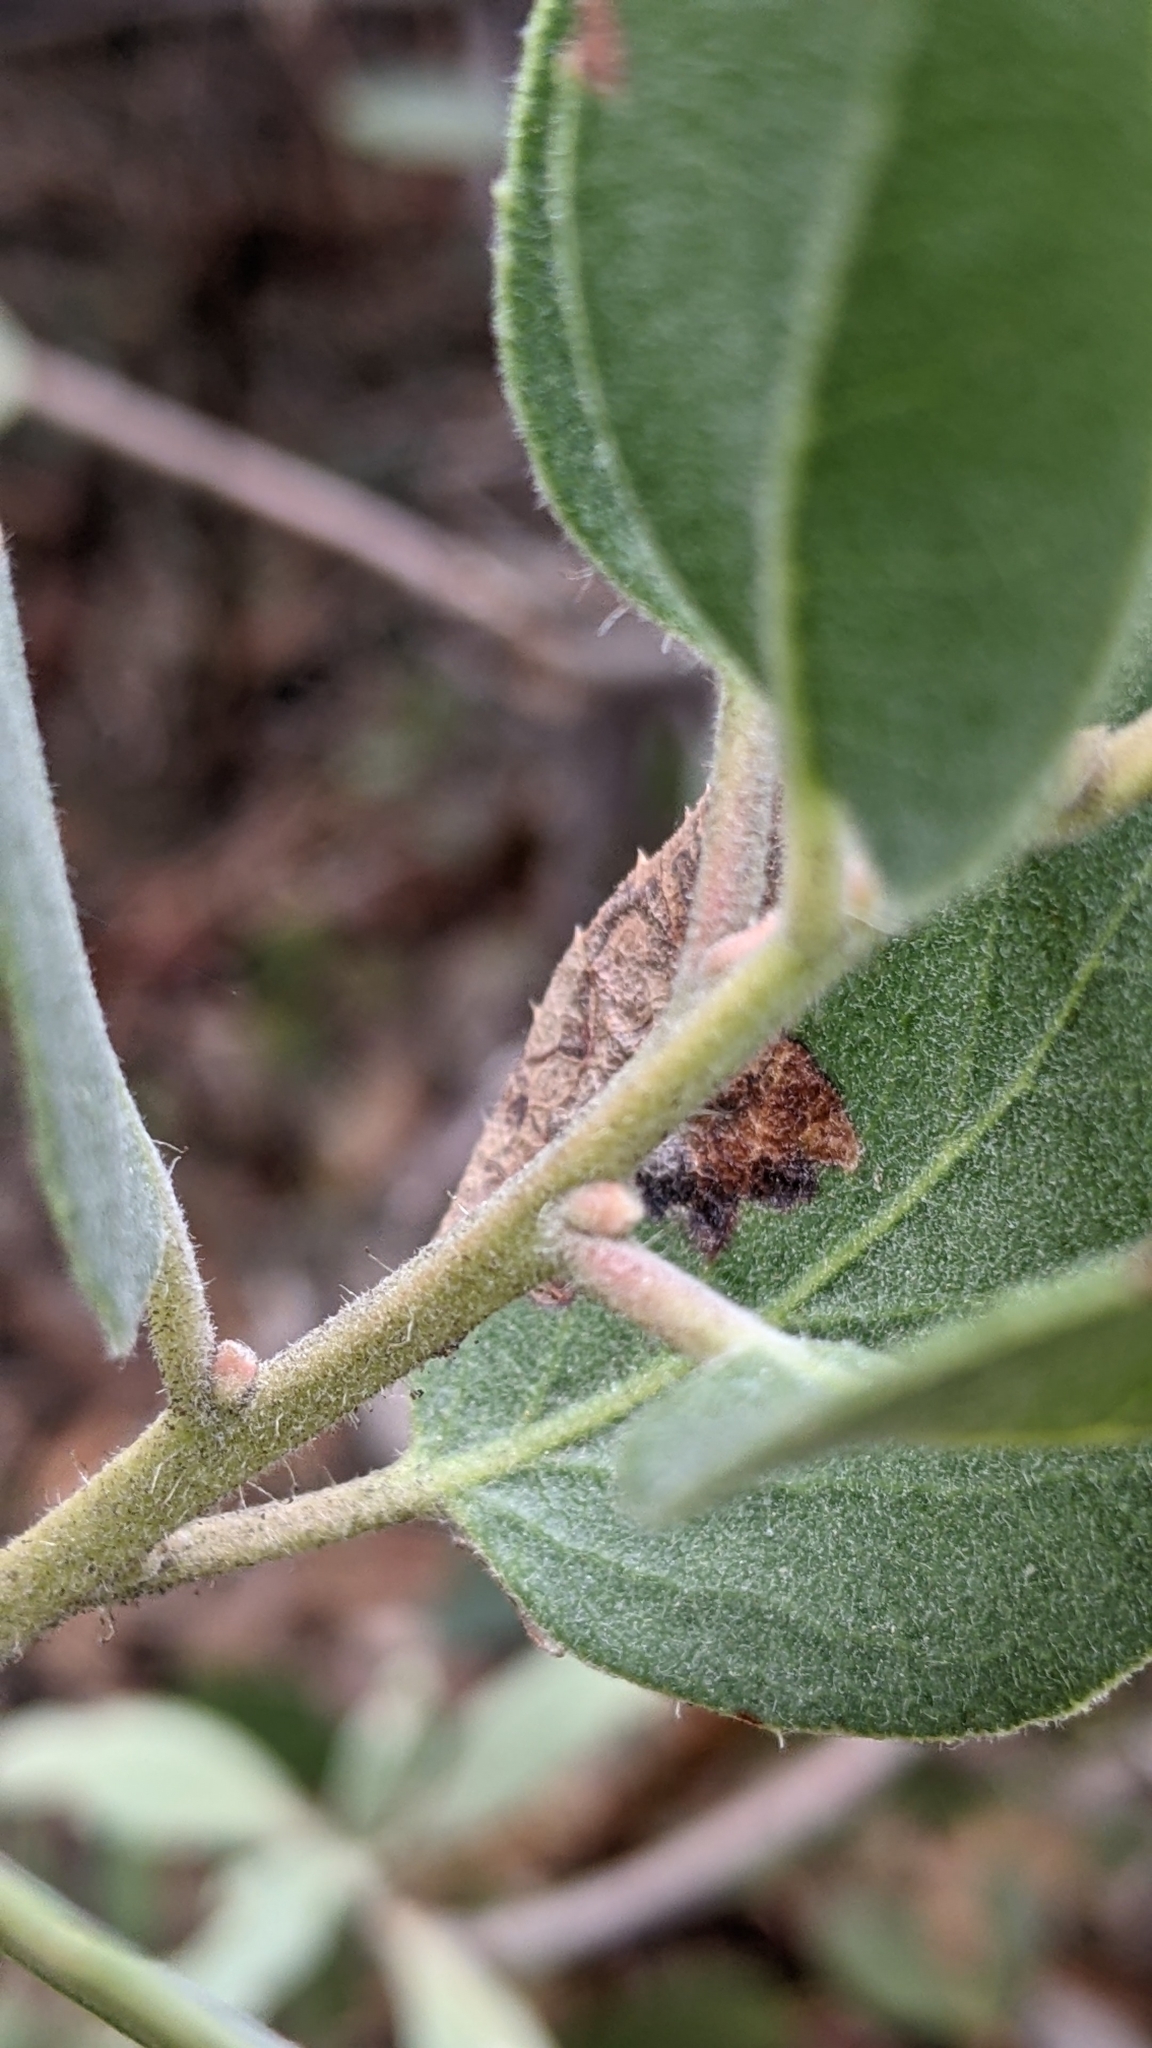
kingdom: Plantae
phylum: Tracheophyta
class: Magnoliopsida
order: Ericales
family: Ericaceae
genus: Arctostaphylos
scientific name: Arctostaphylos glandulosa
